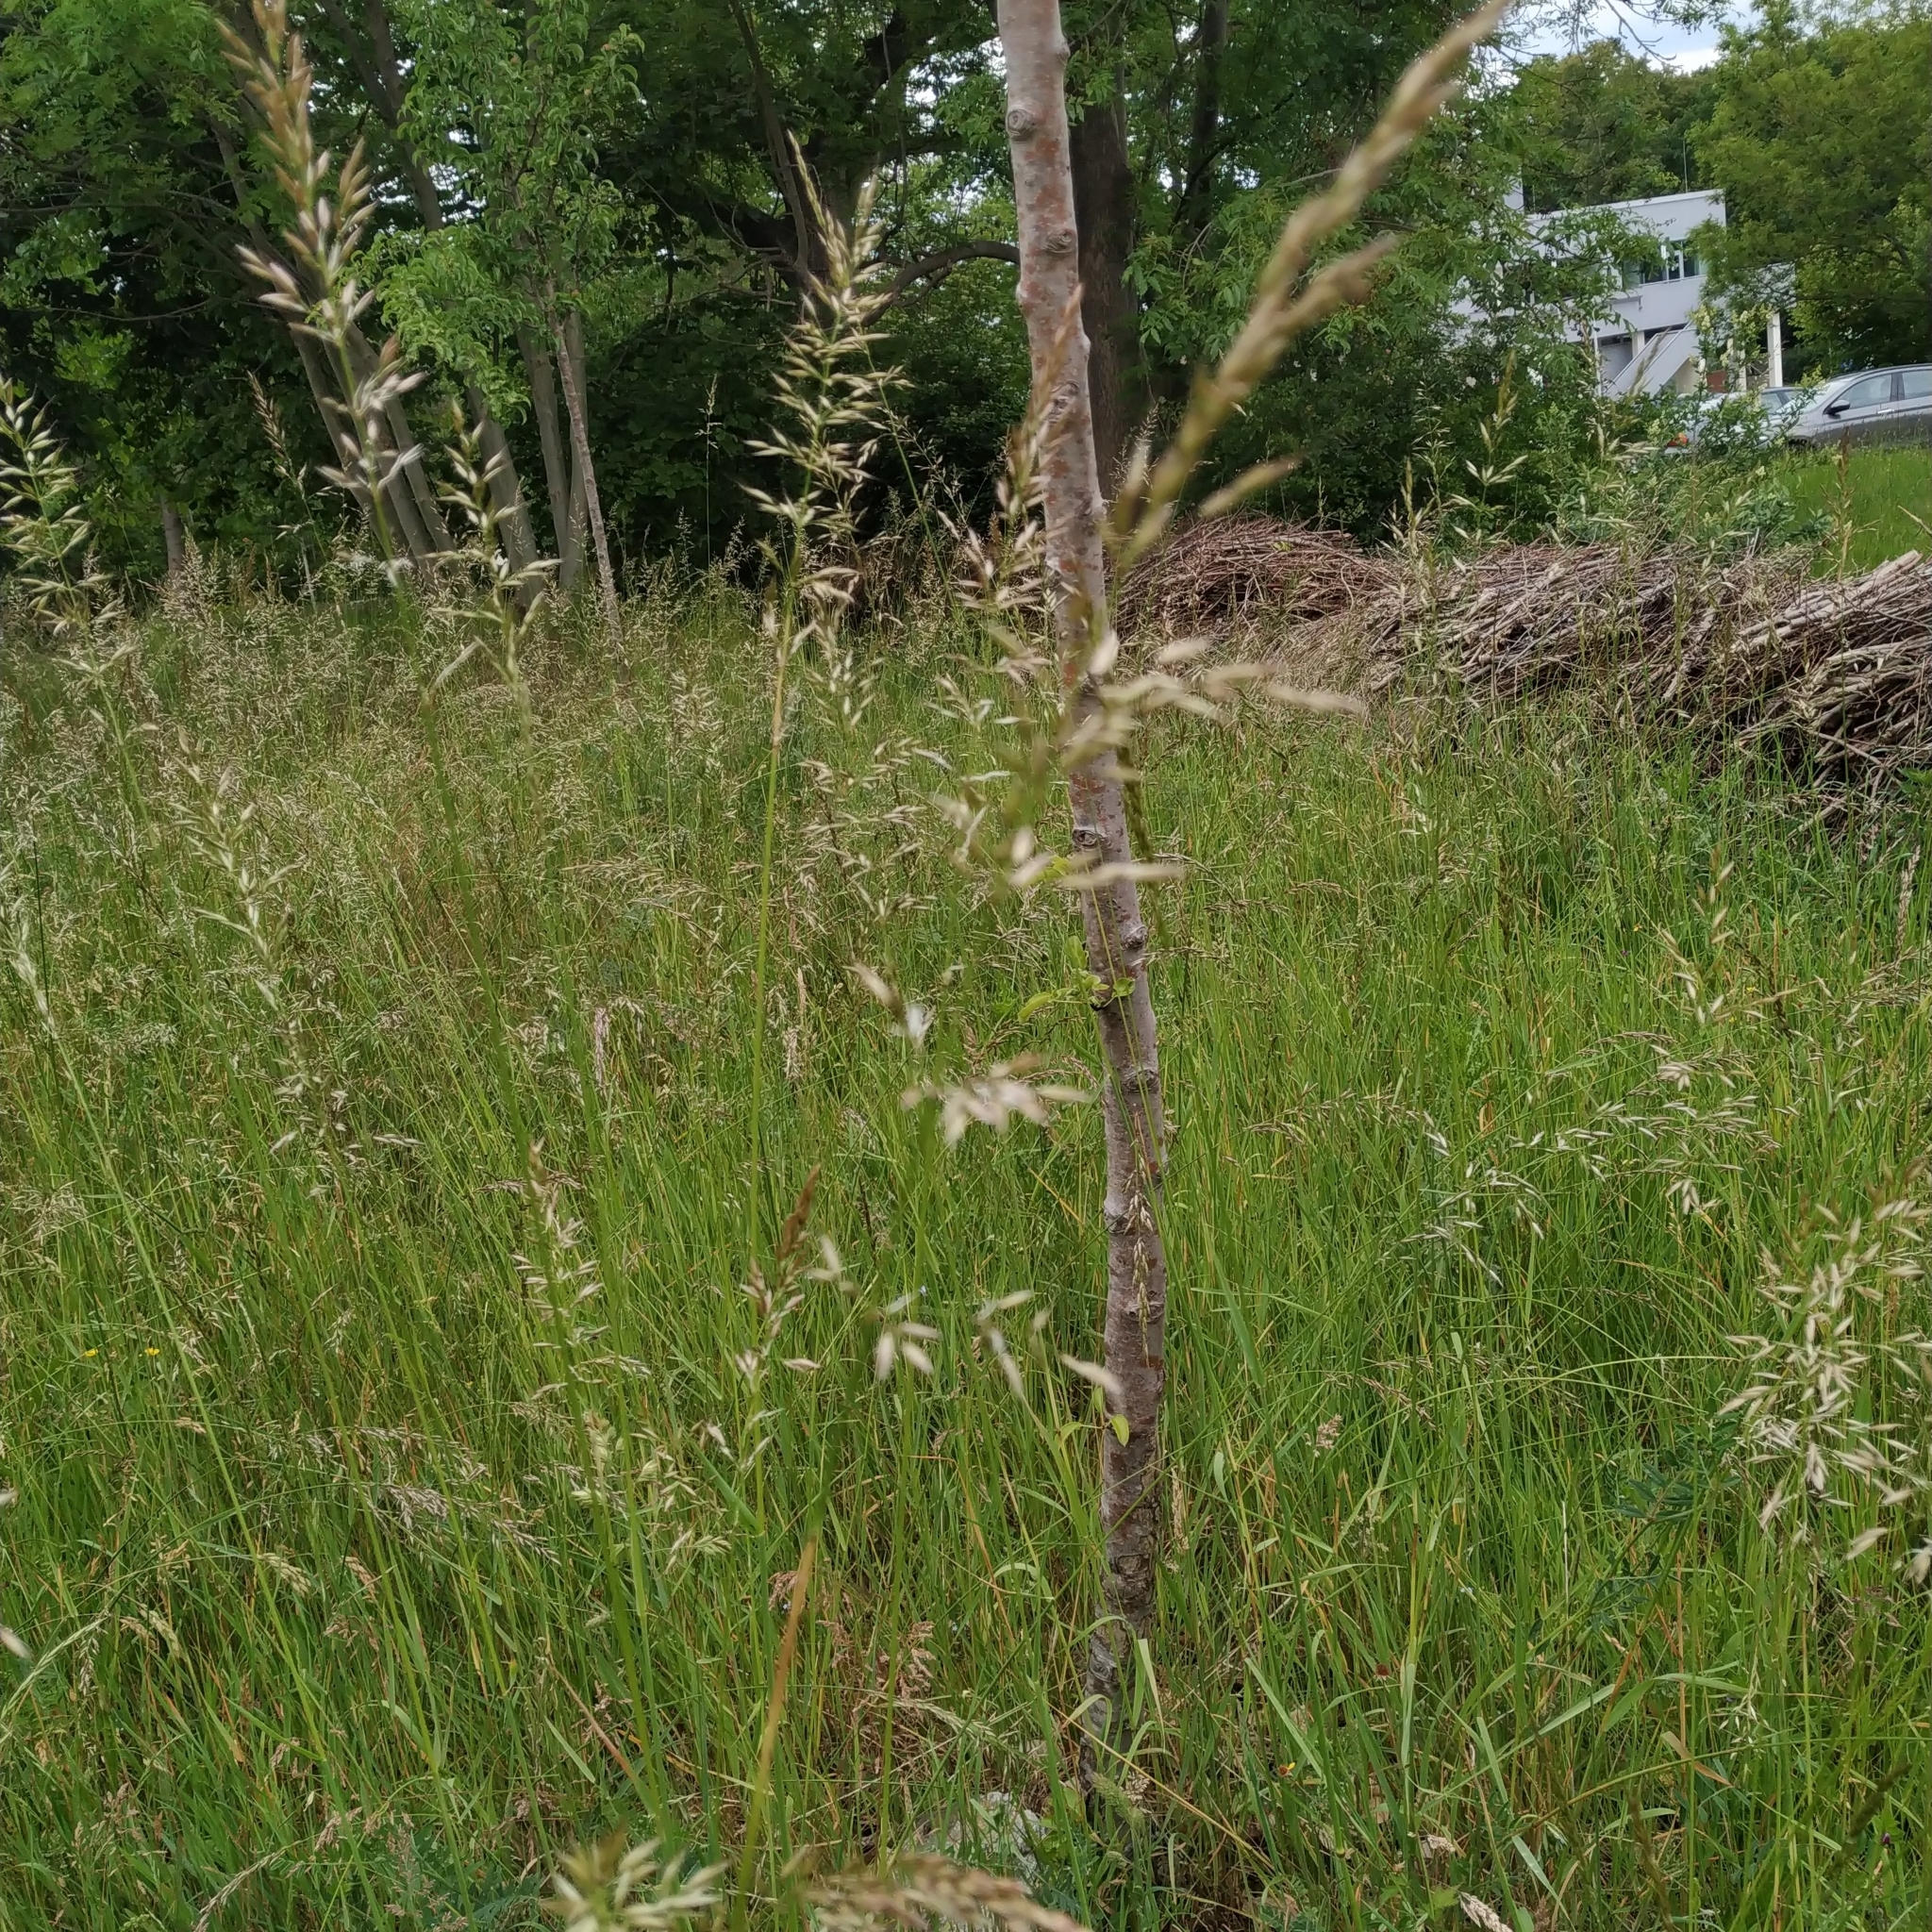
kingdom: Plantae
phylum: Tracheophyta
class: Liliopsida
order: Poales
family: Poaceae
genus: Arrhenatherum
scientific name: Arrhenatherum elatius
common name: Tall oatgrass
